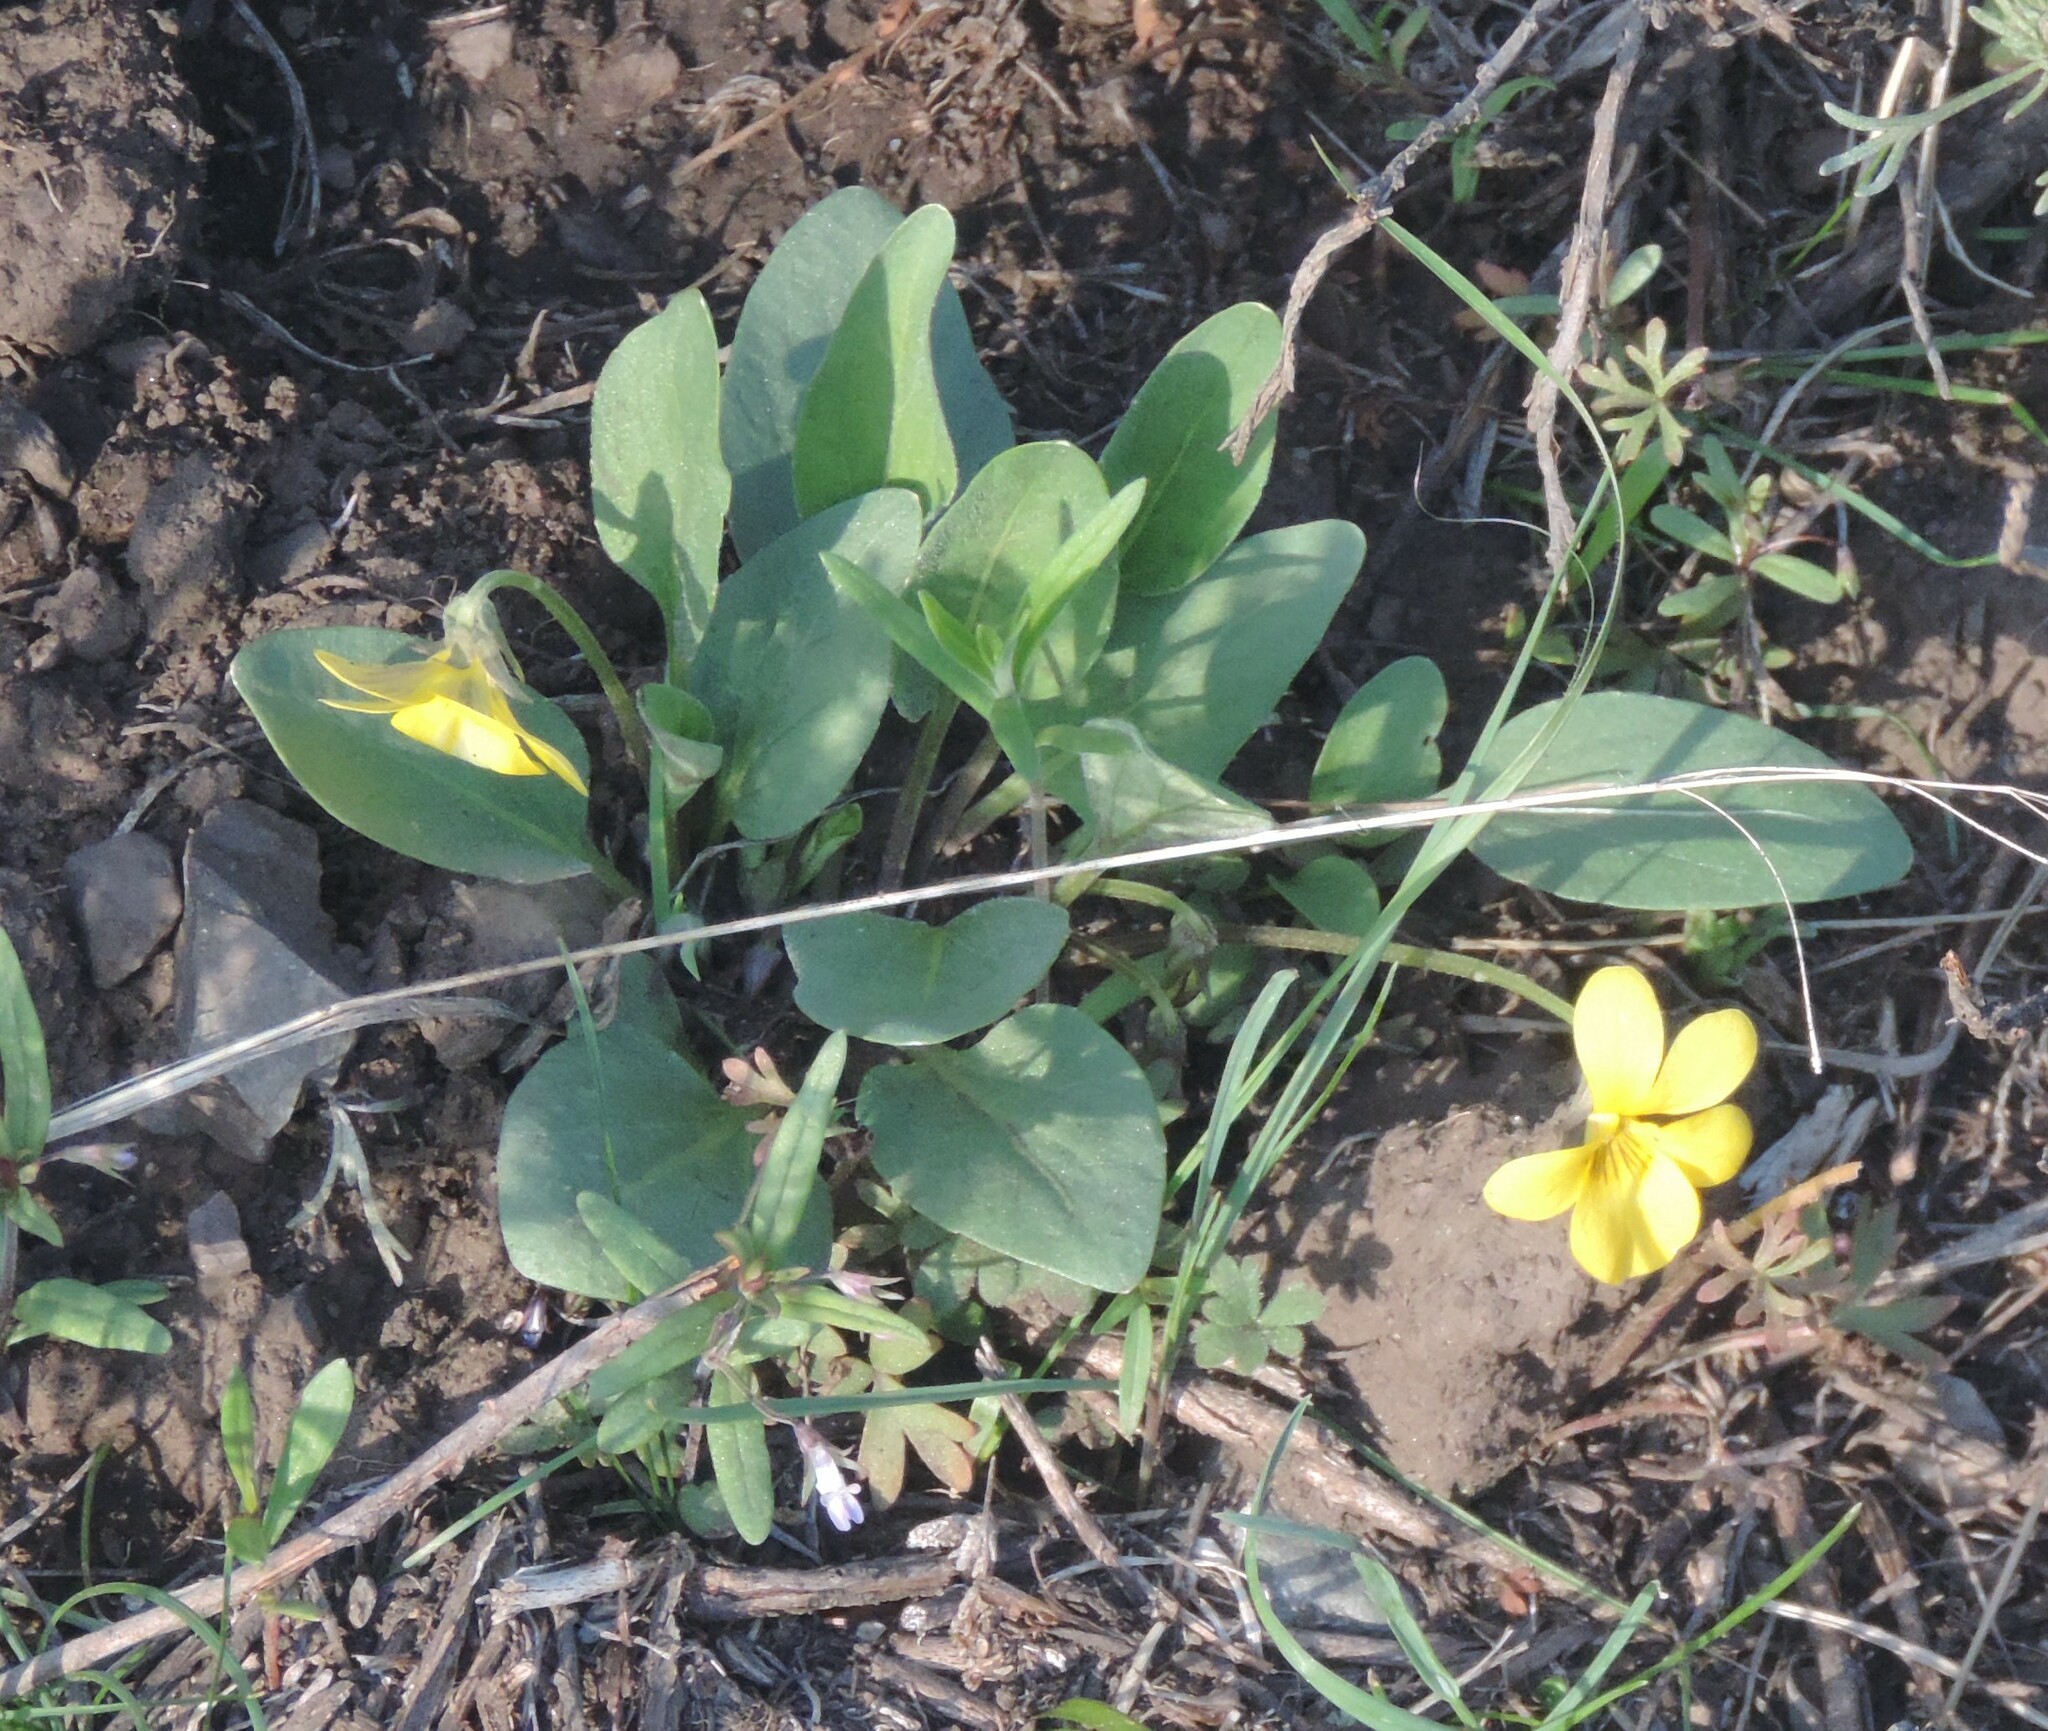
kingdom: Plantae
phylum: Tracheophyta
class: Magnoliopsida
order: Malpighiales
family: Violaceae
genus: Viola
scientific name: Viola vallicola
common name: Valley violet
